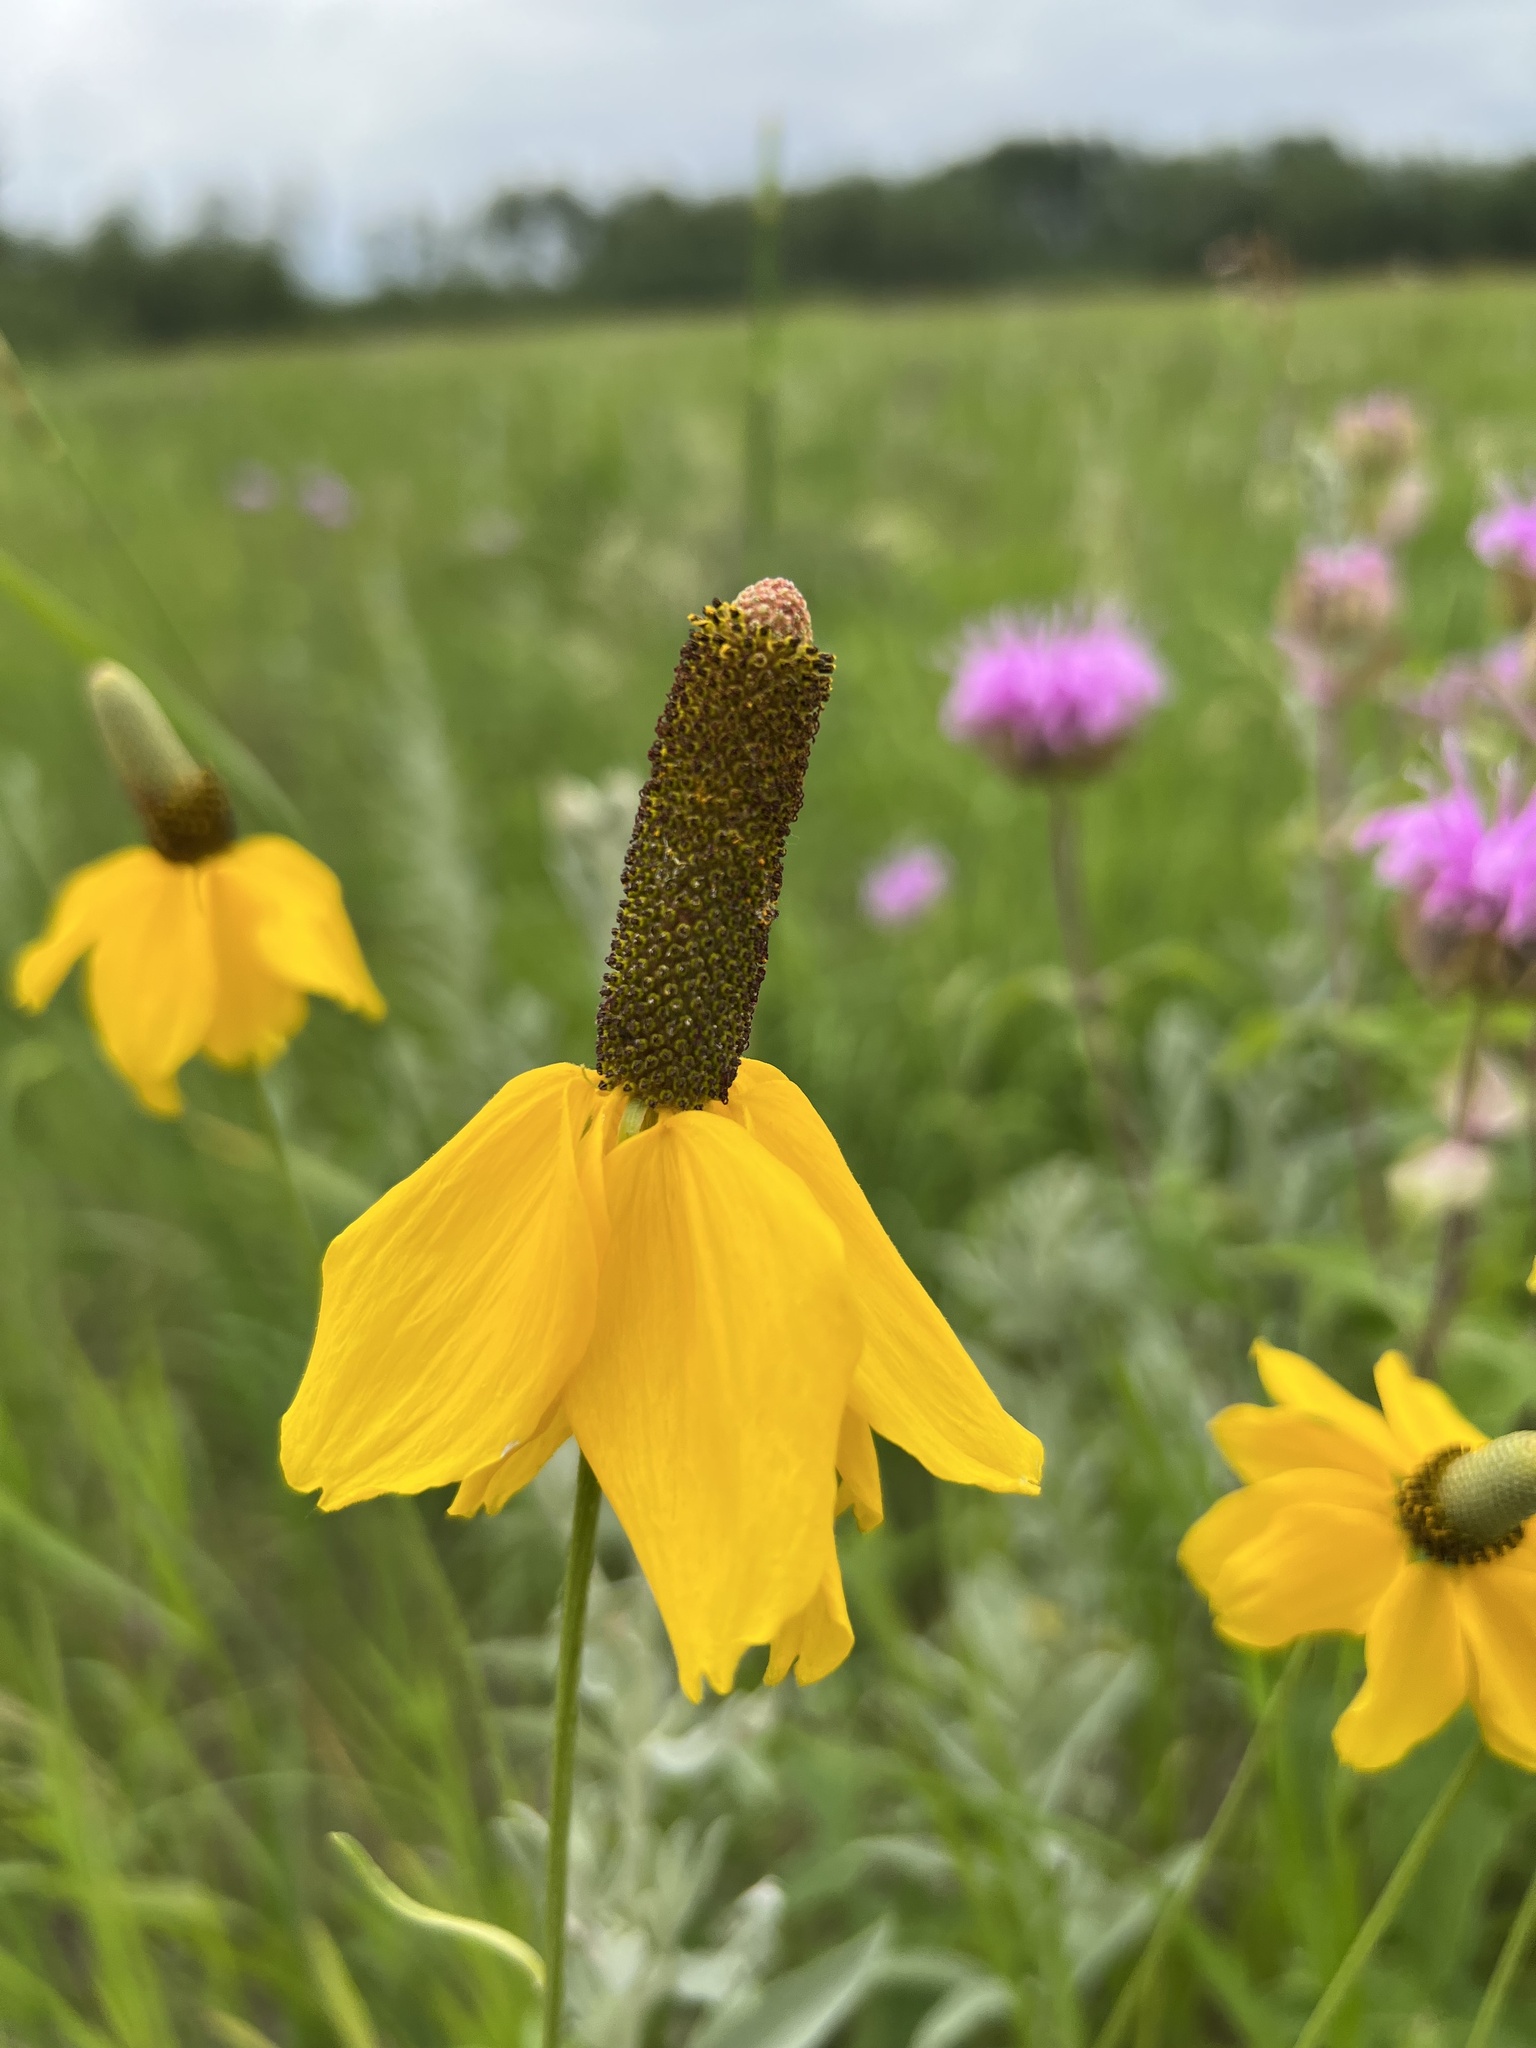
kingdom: Plantae
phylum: Tracheophyta
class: Magnoliopsida
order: Asterales
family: Asteraceae
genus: Ratibida
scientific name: Ratibida columnifera
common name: Prairie coneflower
